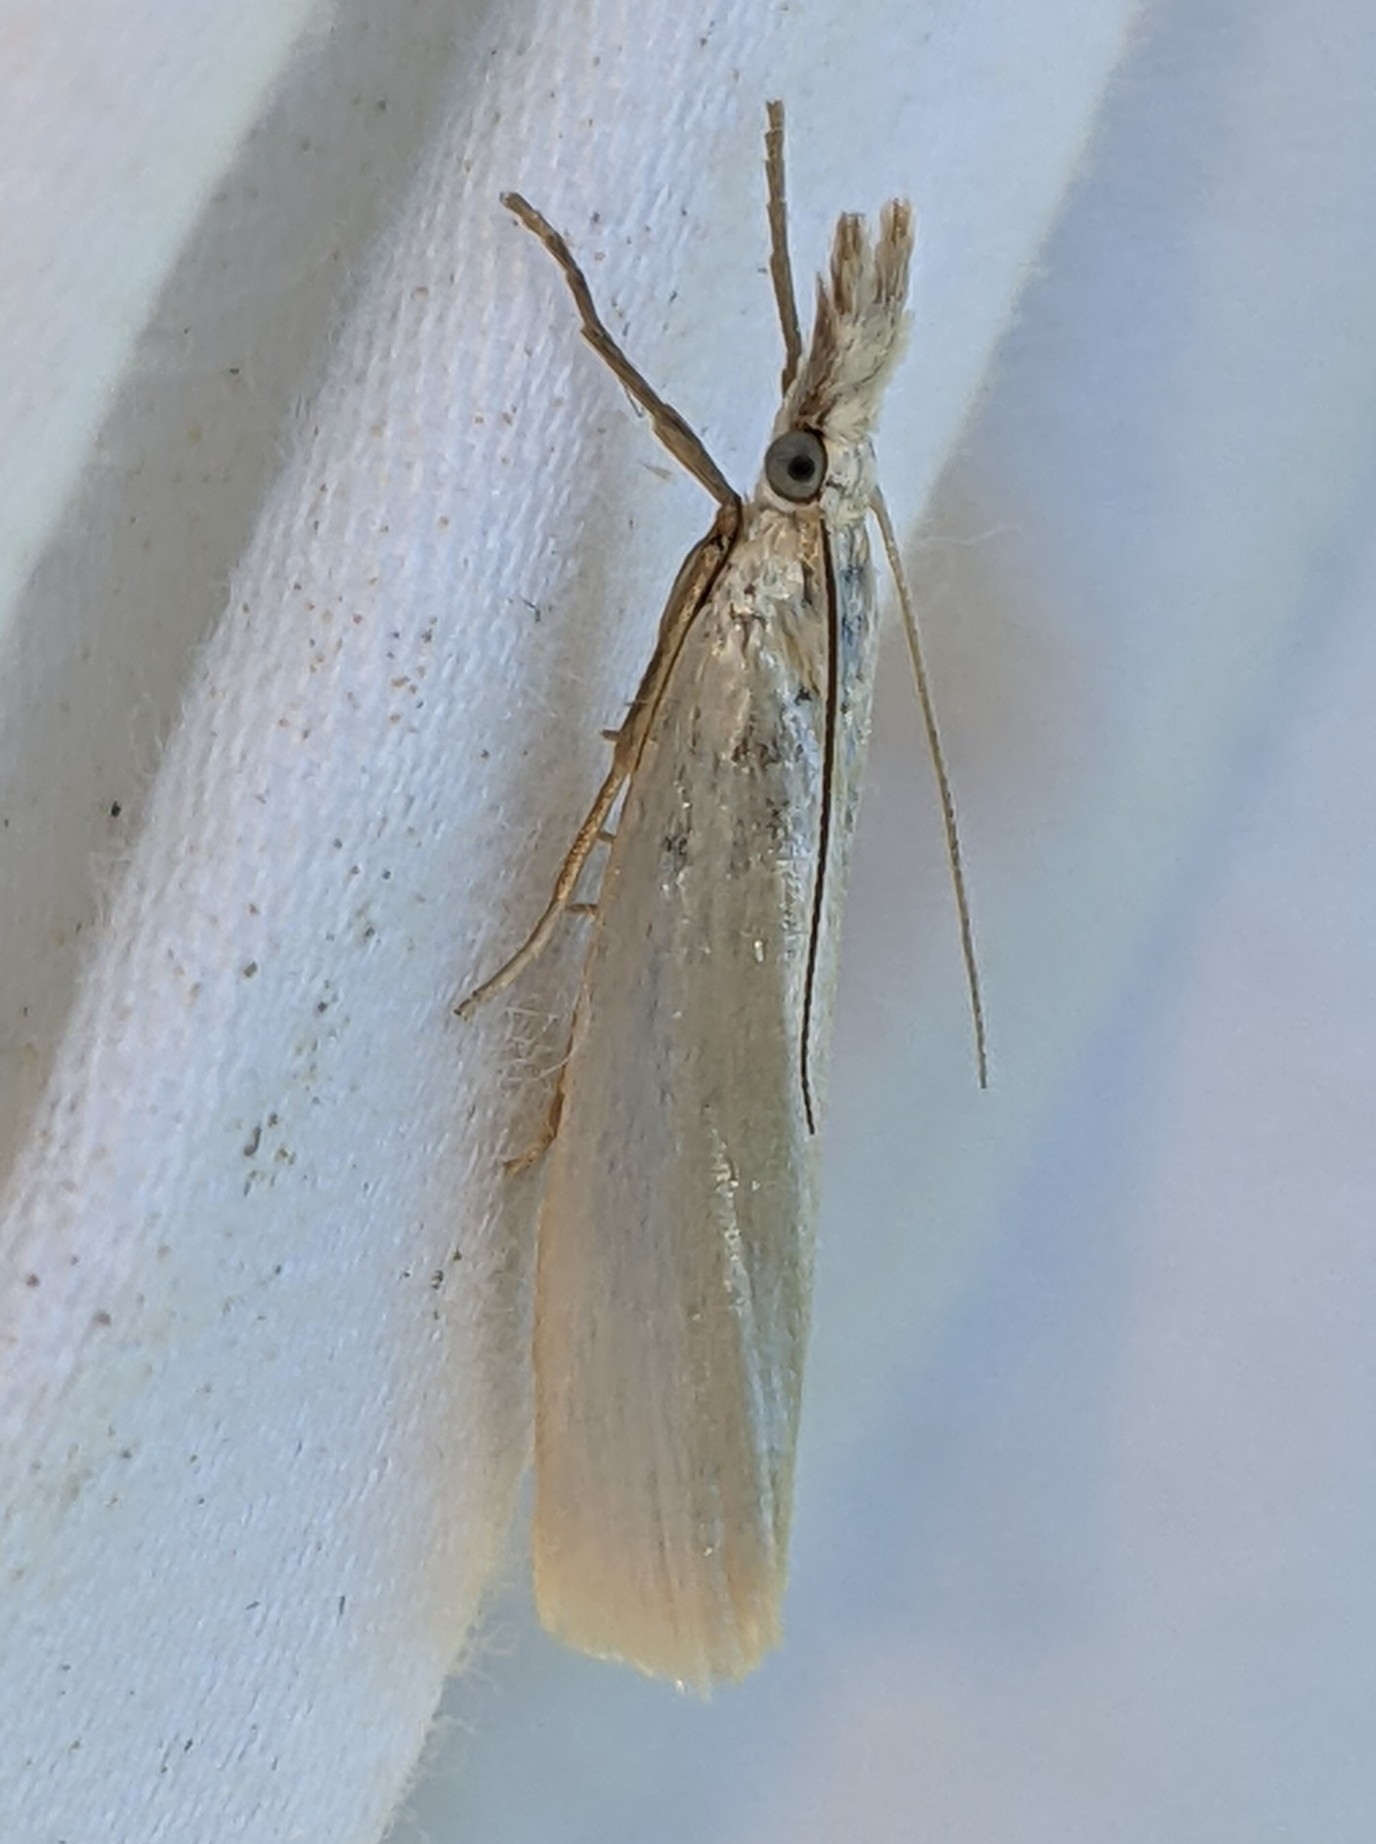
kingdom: Animalia
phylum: Arthropoda
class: Insecta
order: Lepidoptera
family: Crambidae
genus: Crambus
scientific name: Crambus perlellus
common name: Yellow satin veneer
